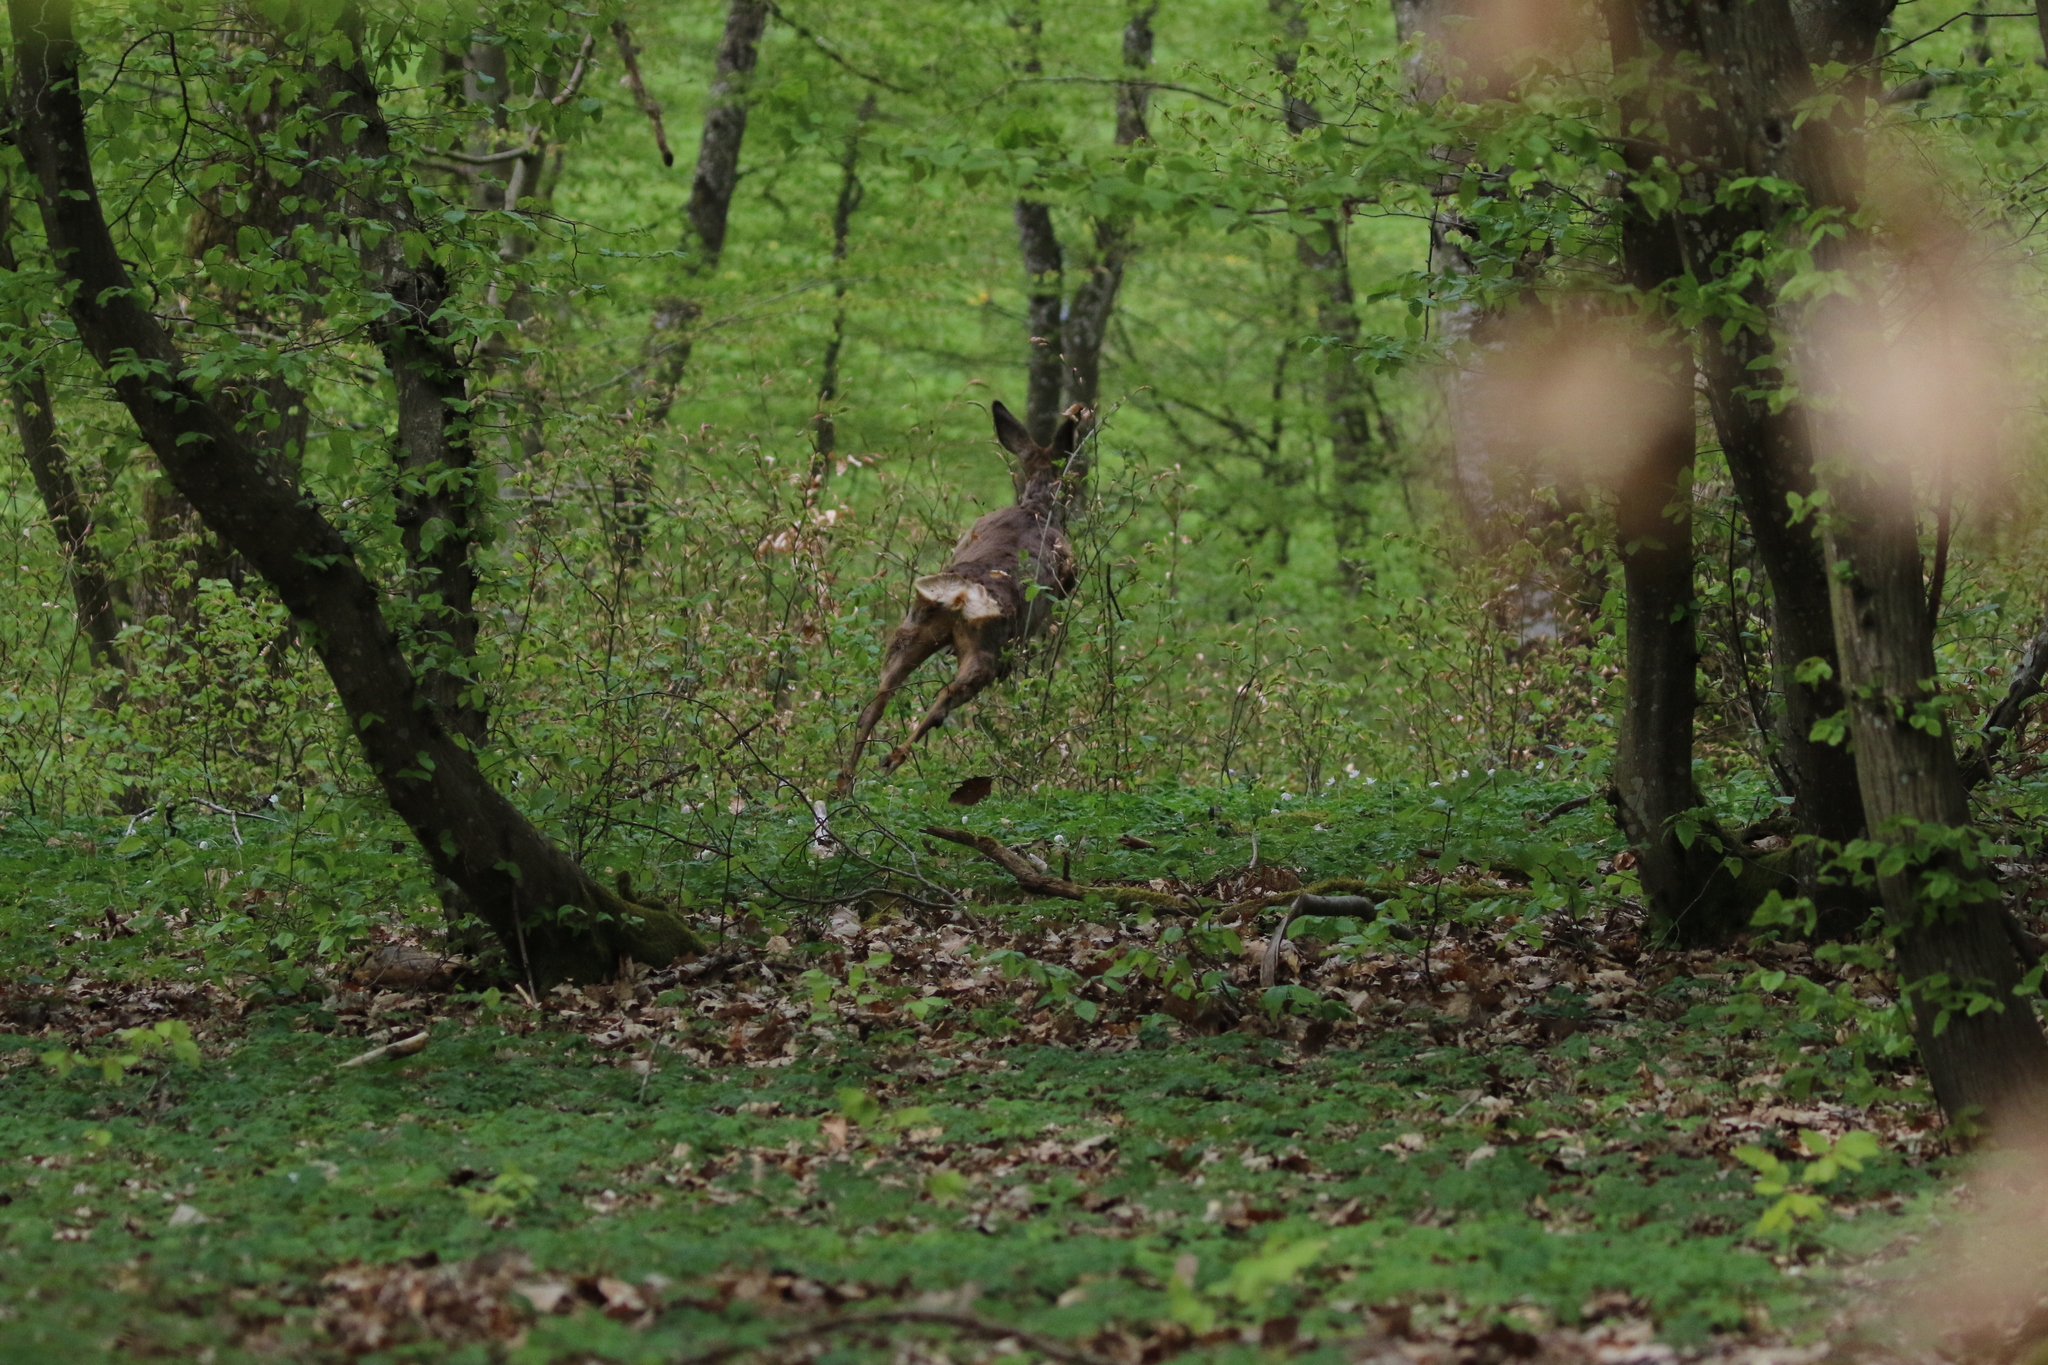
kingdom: Animalia
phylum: Chordata
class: Mammalia
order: Artiodactyla
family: Cervidae
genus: Capreolus
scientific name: Capreolus capreolus
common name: Western roe deer
